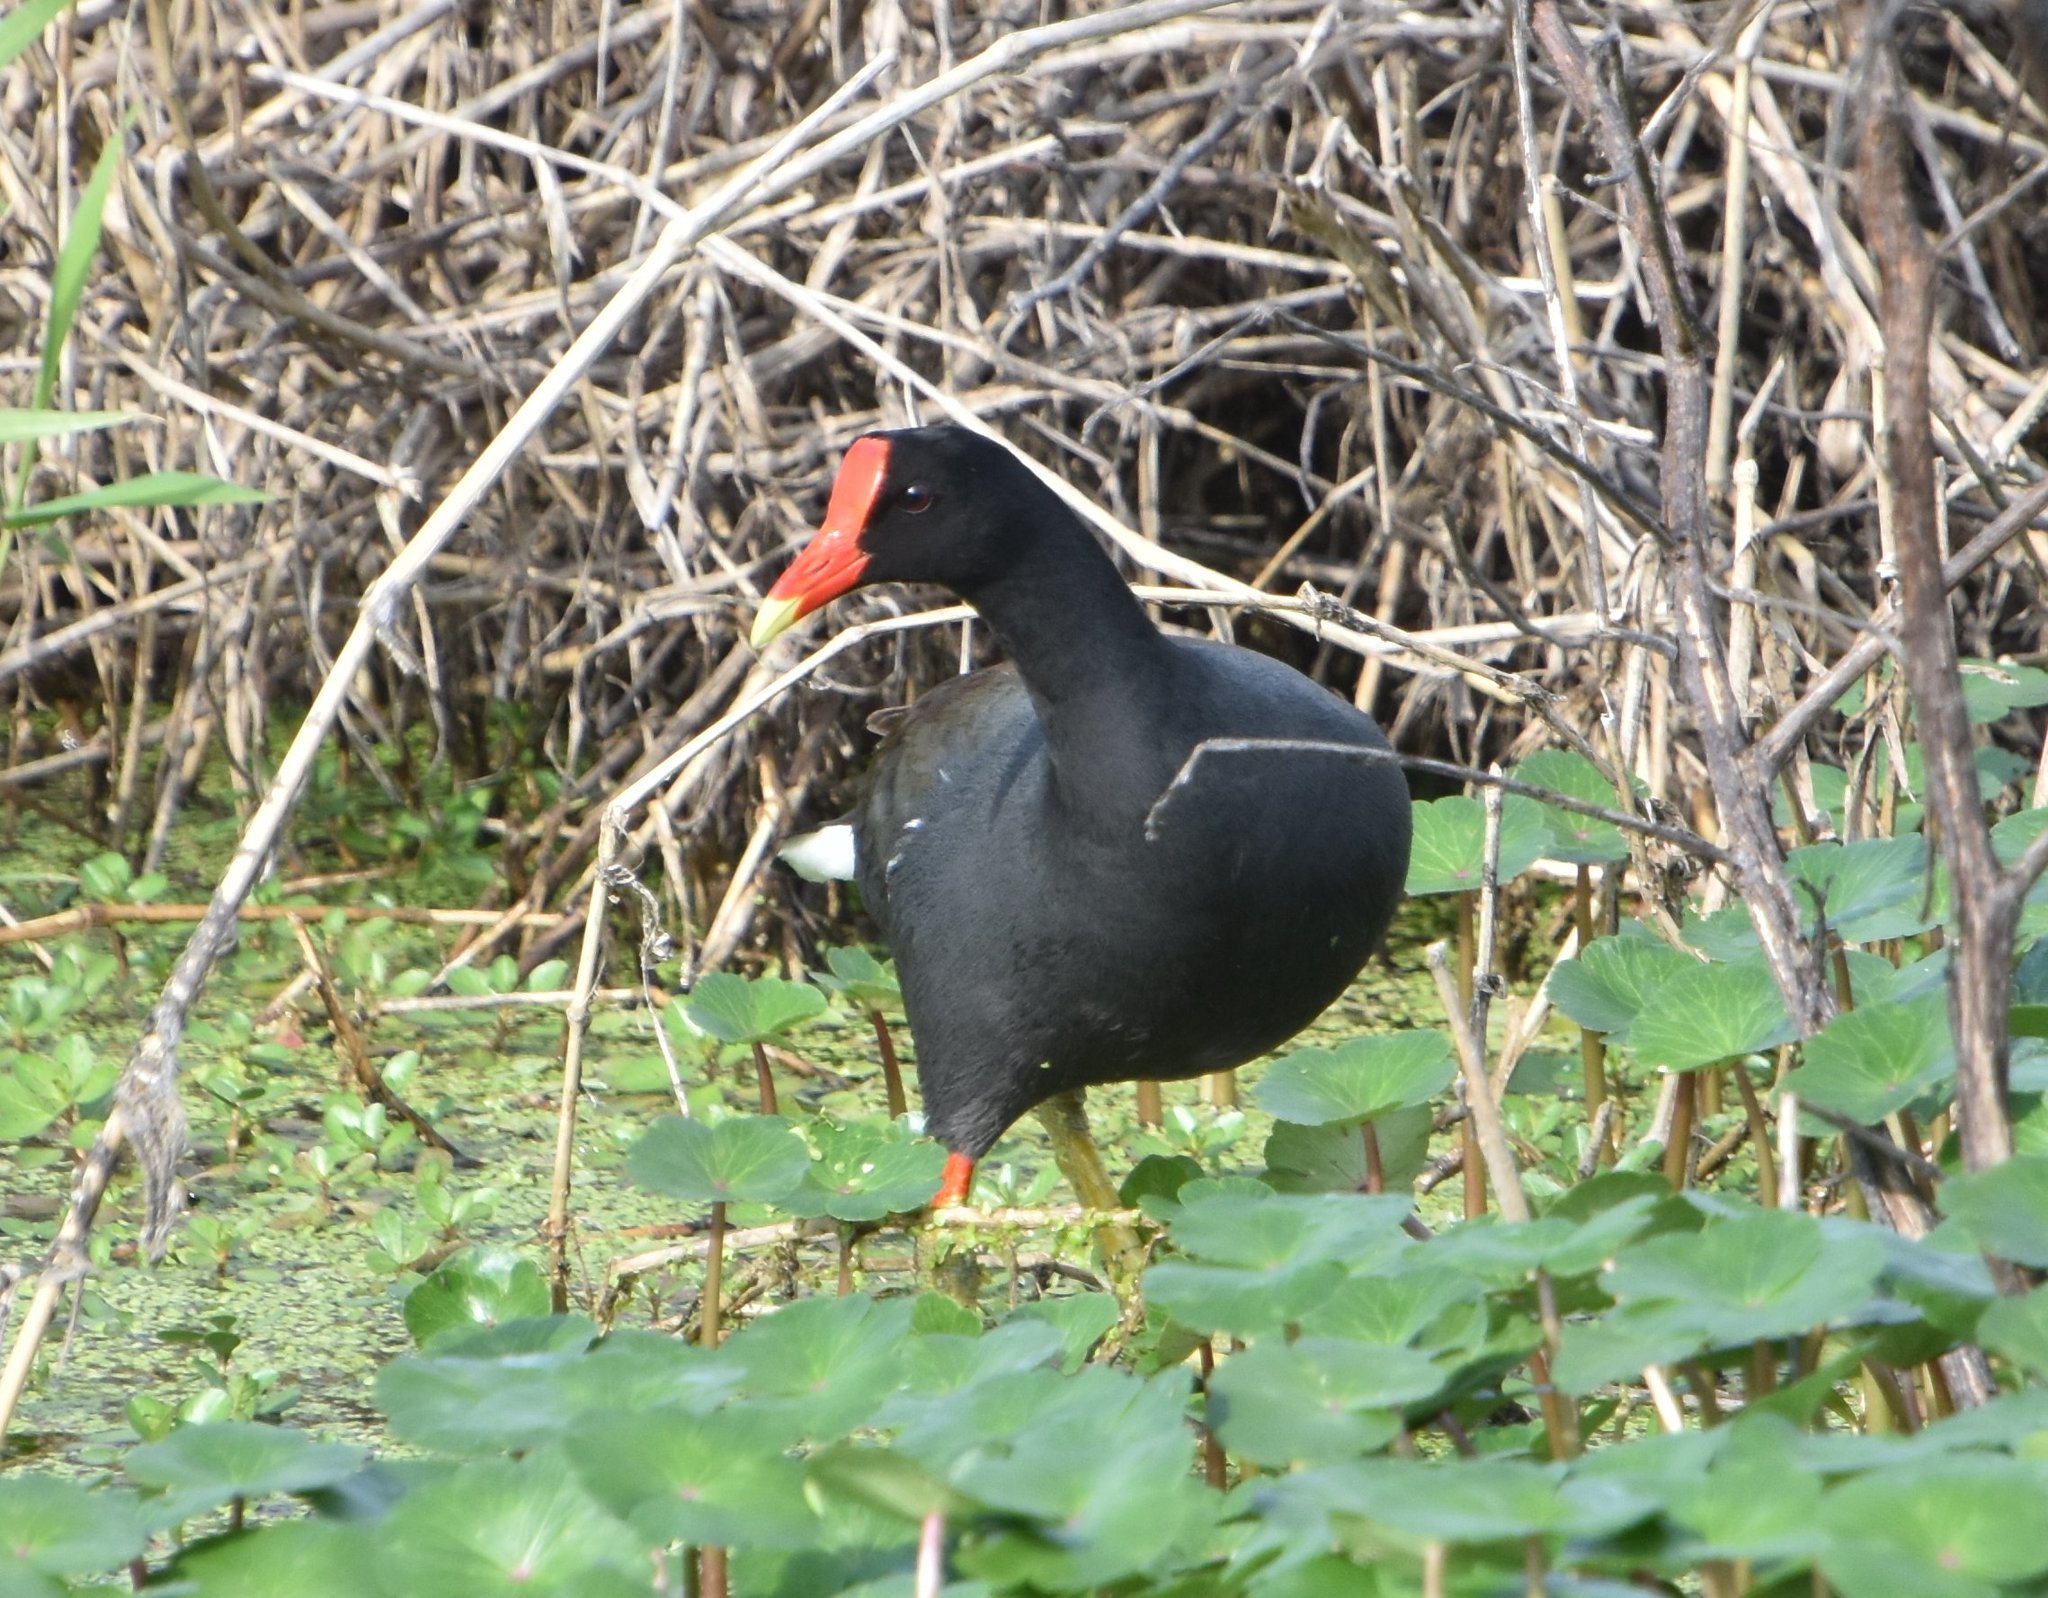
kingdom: Animalia
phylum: Chordata
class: Aves
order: Gruiformes
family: Rallidae
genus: Gallinula
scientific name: Gallinula chloropus
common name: Common moorhen
